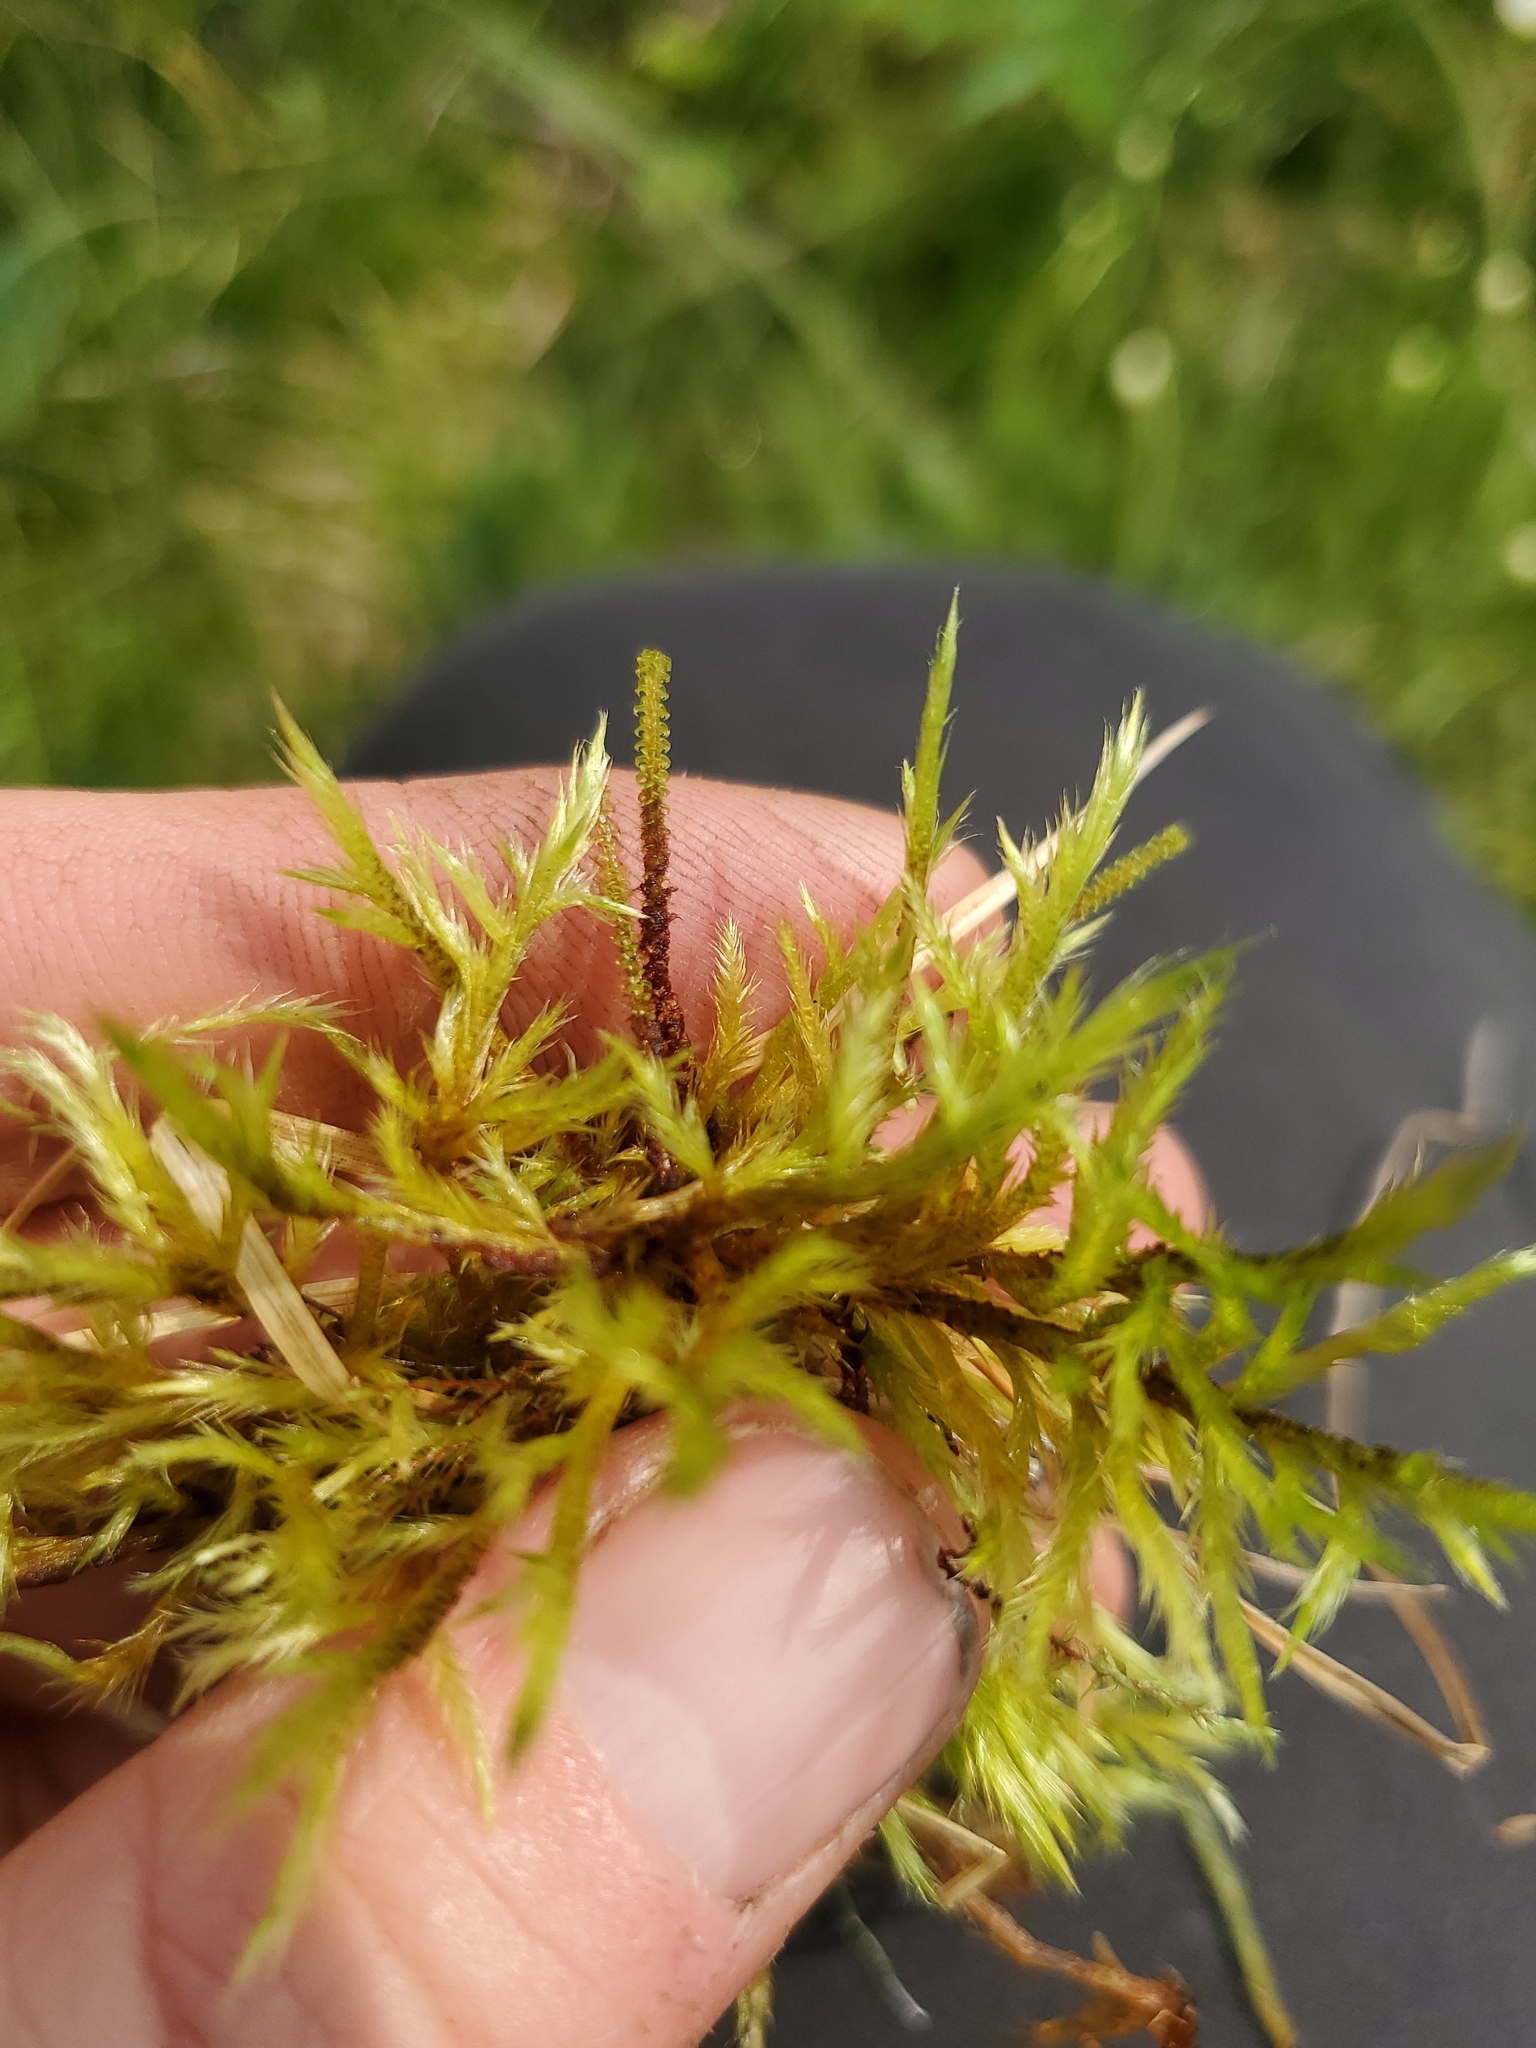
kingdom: Plantae
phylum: Bryophyta
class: Bryopsida
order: Splachnales
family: Meesiaceae
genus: Paludella
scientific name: Paludella squarrosa
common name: Tufted fen moss
